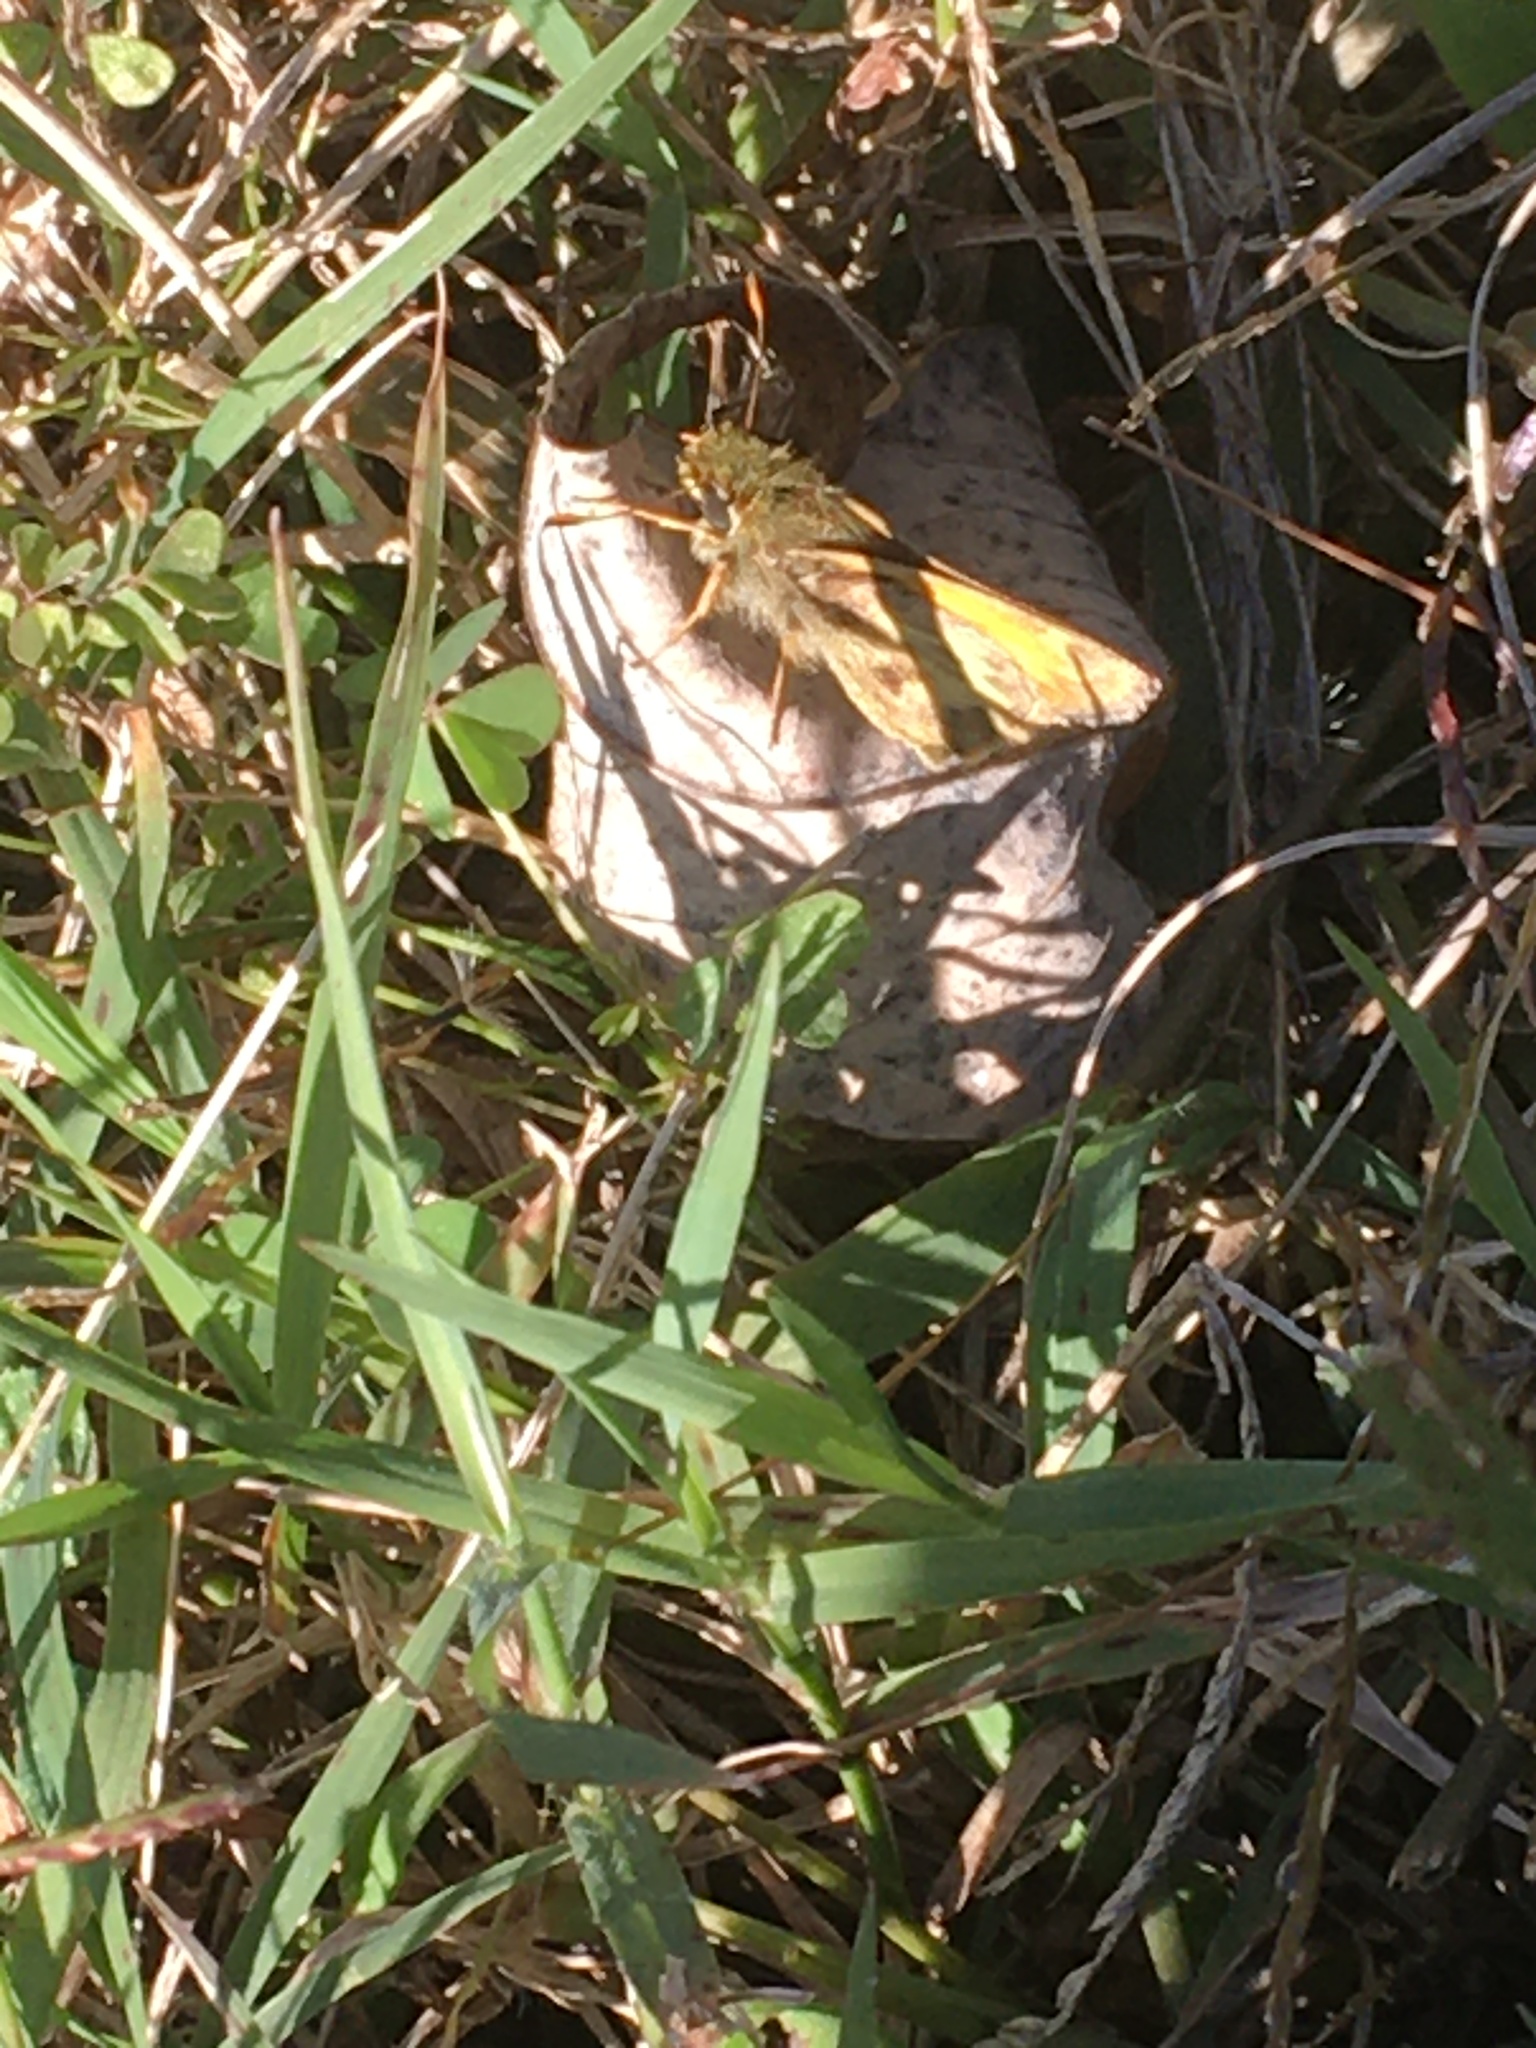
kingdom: Animalia
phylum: Arthropoda
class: Insecta
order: Lepidoptera
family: Hesperiidae
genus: Atalopedes
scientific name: Atalopedes
